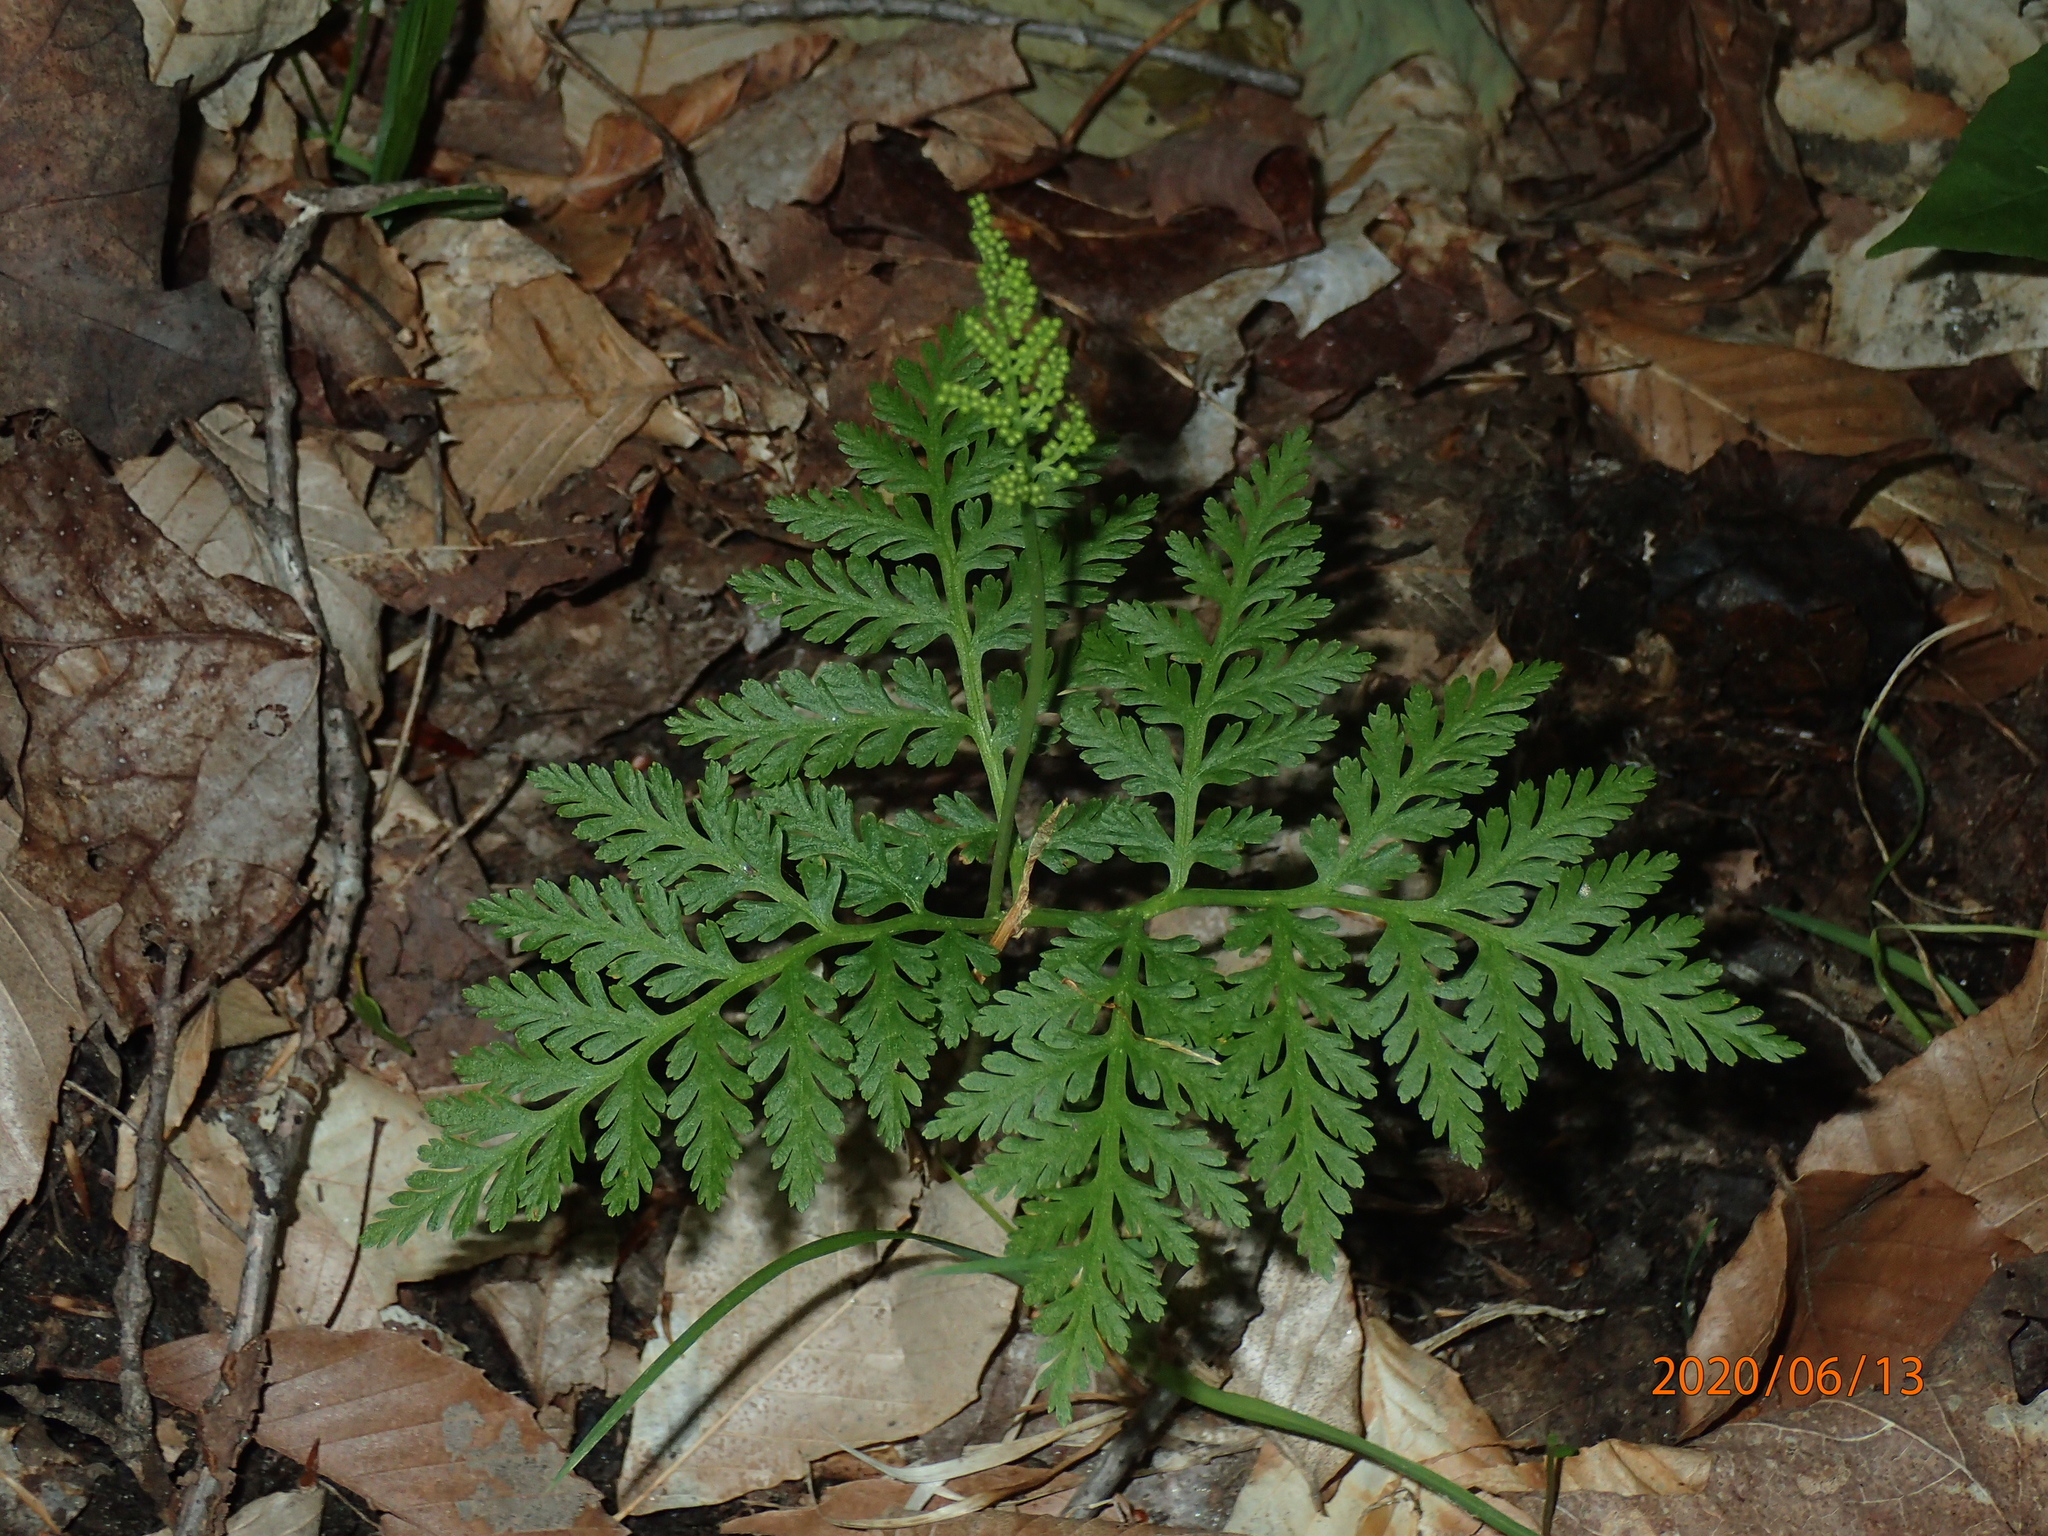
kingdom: Plantae
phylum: Tracheophyta
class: Polypodiopsida
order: Ophioglossales
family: Ophioglossaceae
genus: Botrypus
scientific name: Botrypus virginianus
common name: Common grapefern
